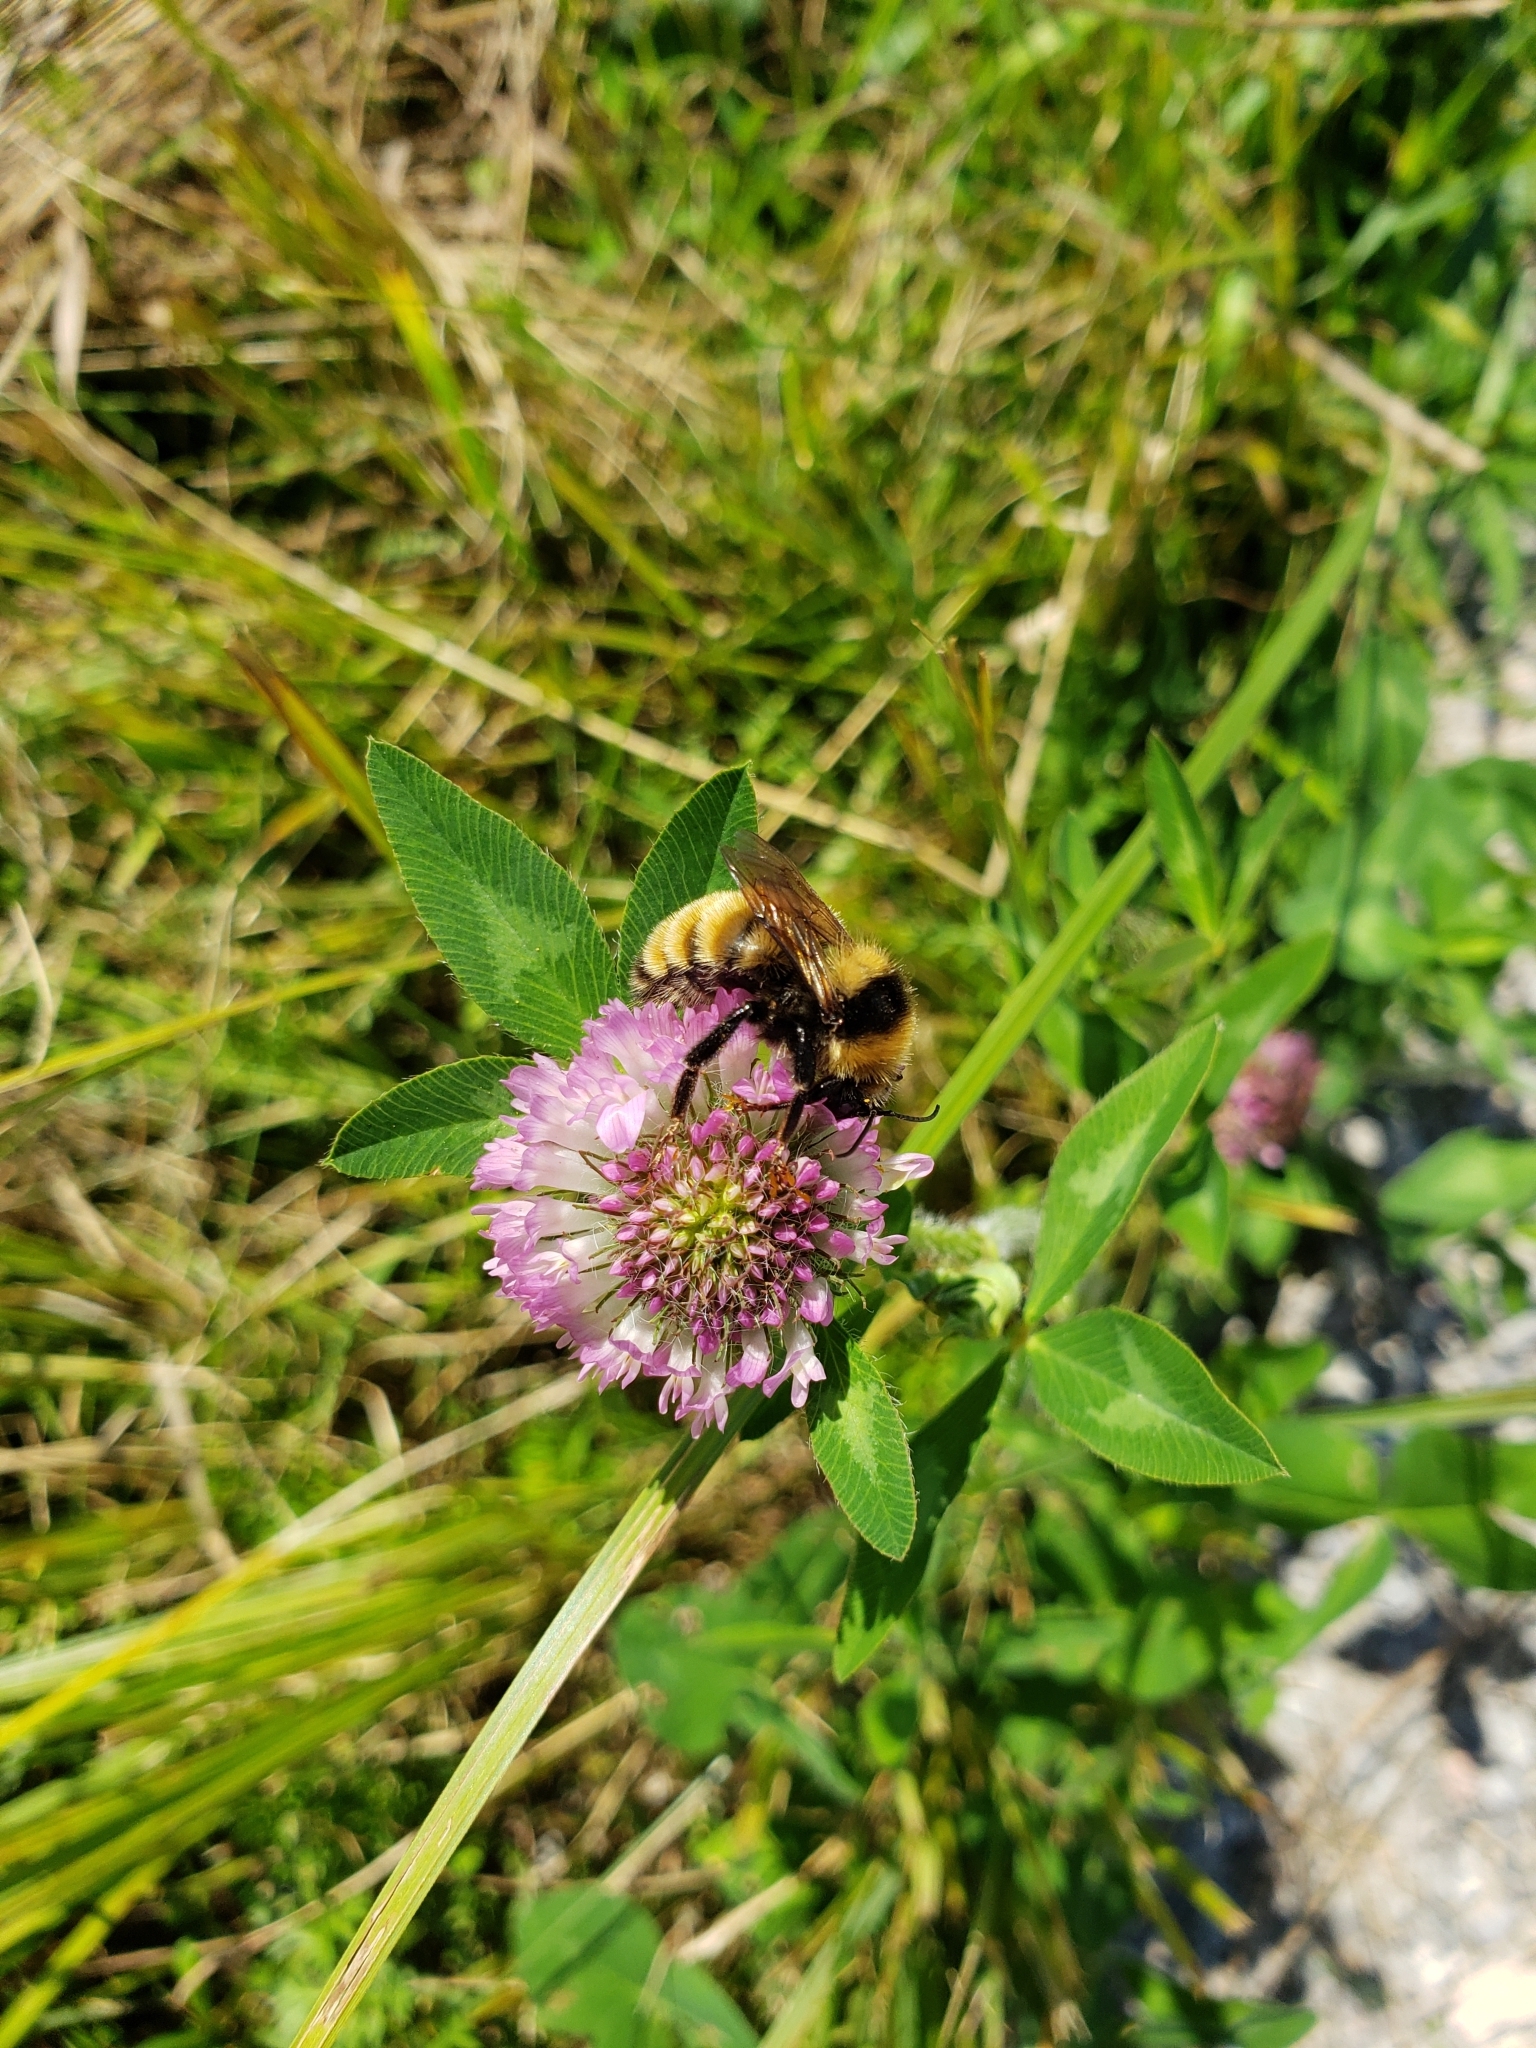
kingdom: Animalia
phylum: Arthropoda
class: Insecta
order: Hymenoptera
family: Apidae
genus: Bombus
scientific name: Bombus borealis
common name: Northern amber bumble bee
